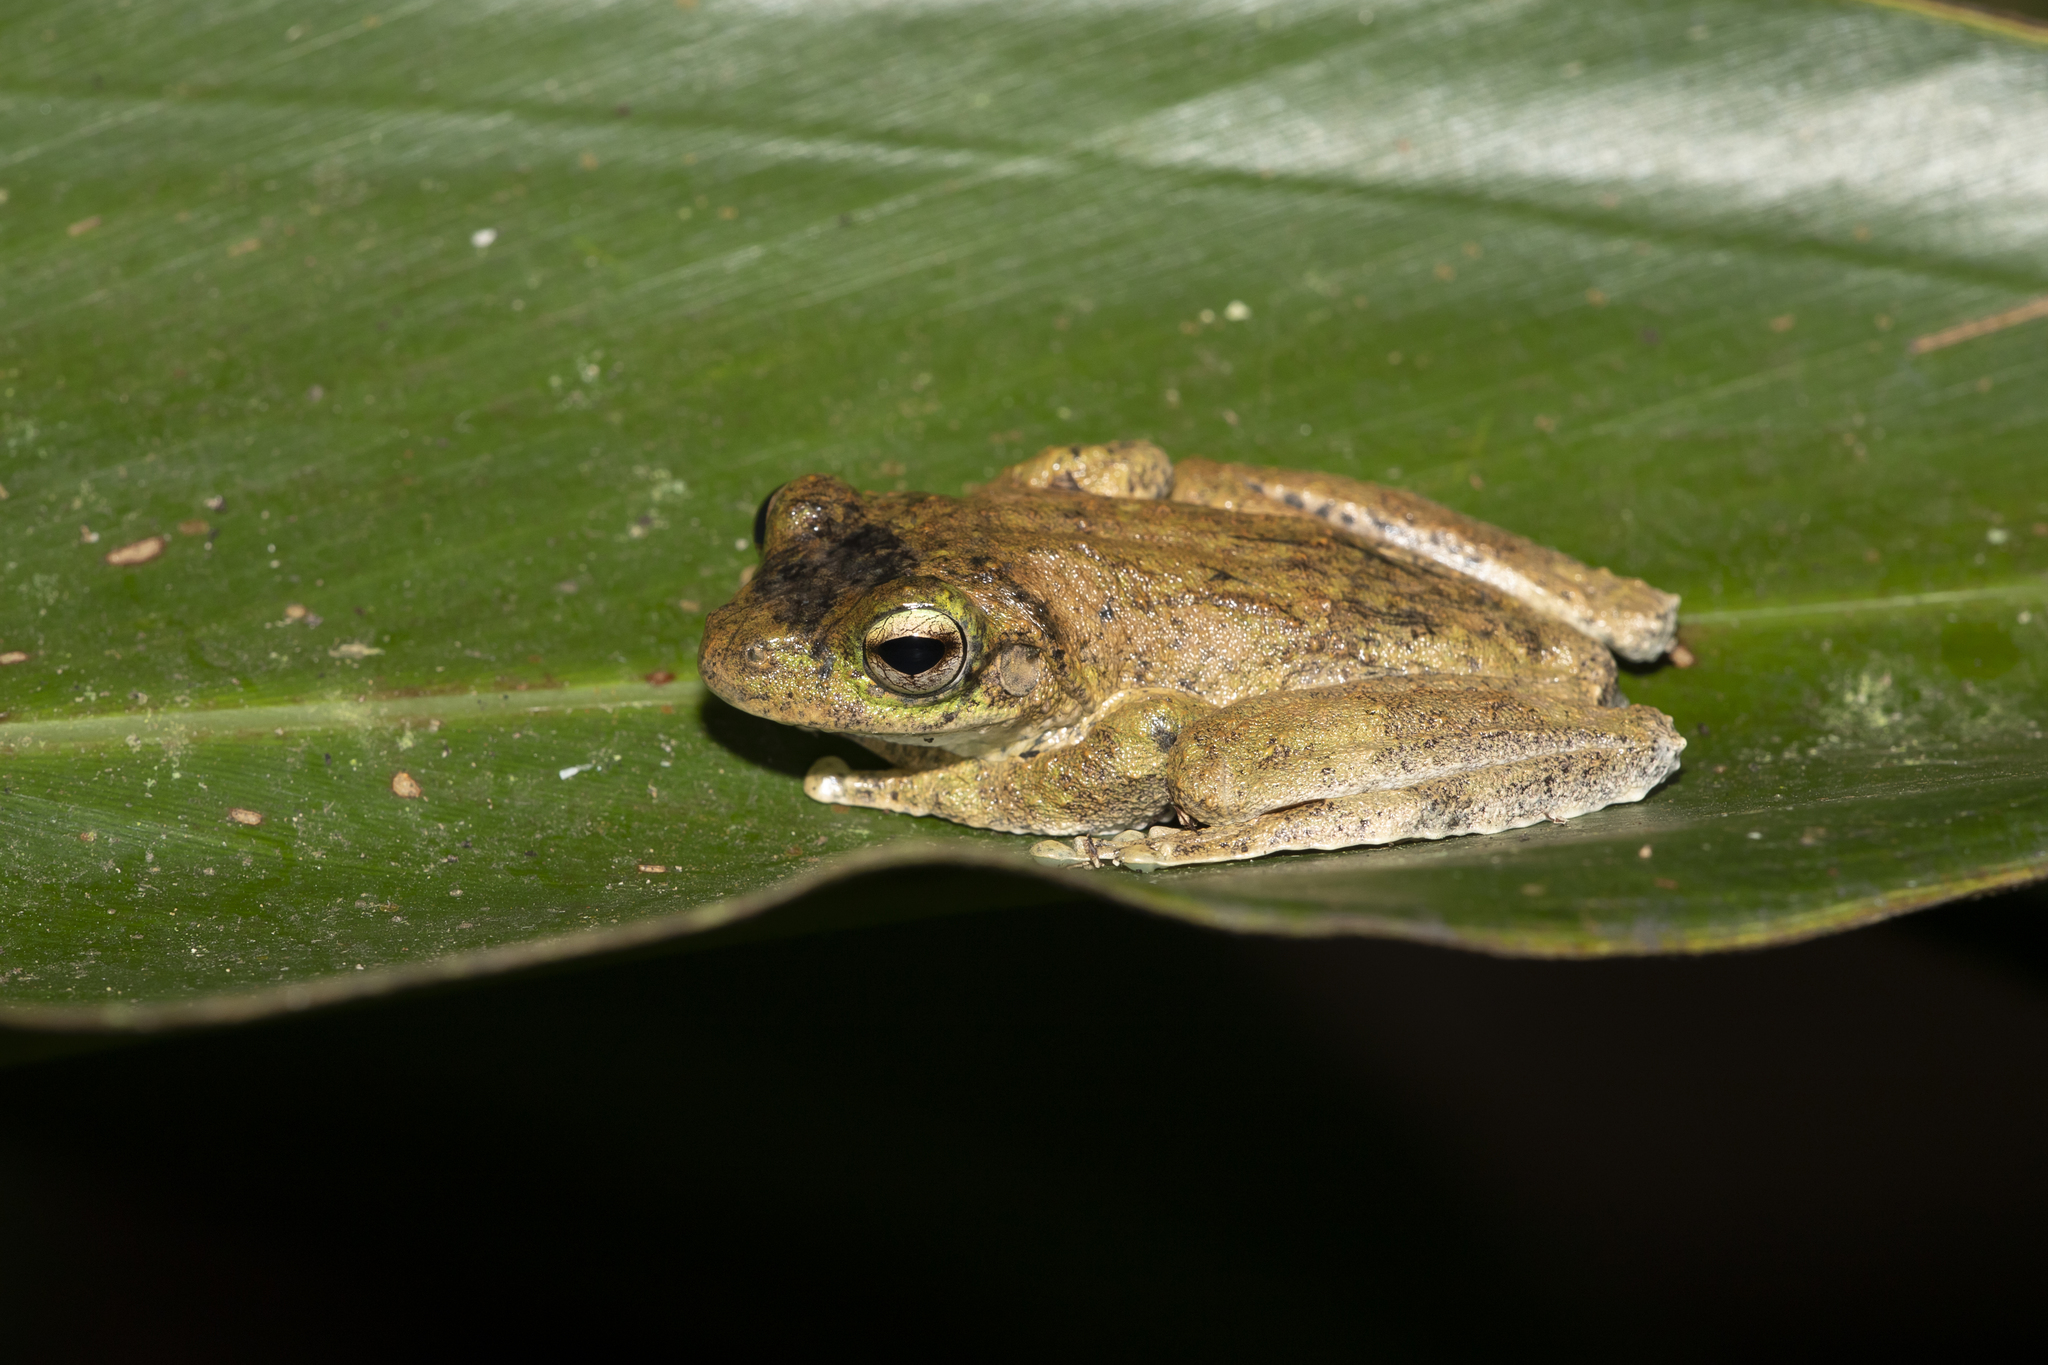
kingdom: Animalia
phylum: Chordata
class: Amphibia
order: Anura
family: Pelodryadidae
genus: Ranoidea
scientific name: Ranoidea serrata
